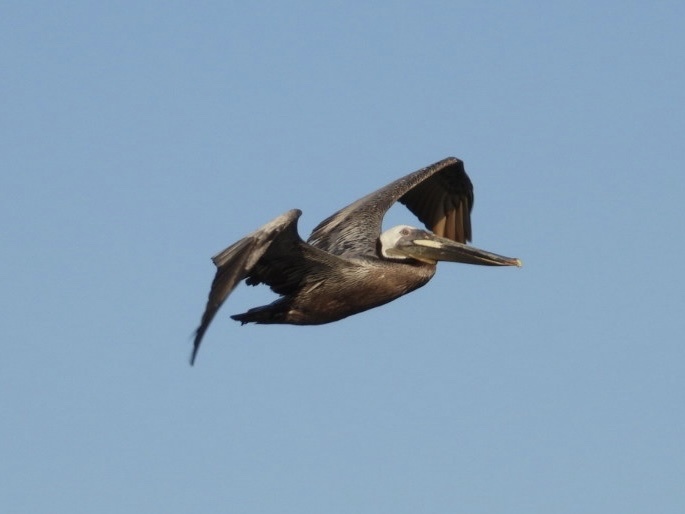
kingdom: Animalia
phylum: Chordata
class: Aves
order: Pelecaniformes
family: Pelecanidae
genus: Pelecanus
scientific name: Pelecanus occidentalis
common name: Brown pelican
